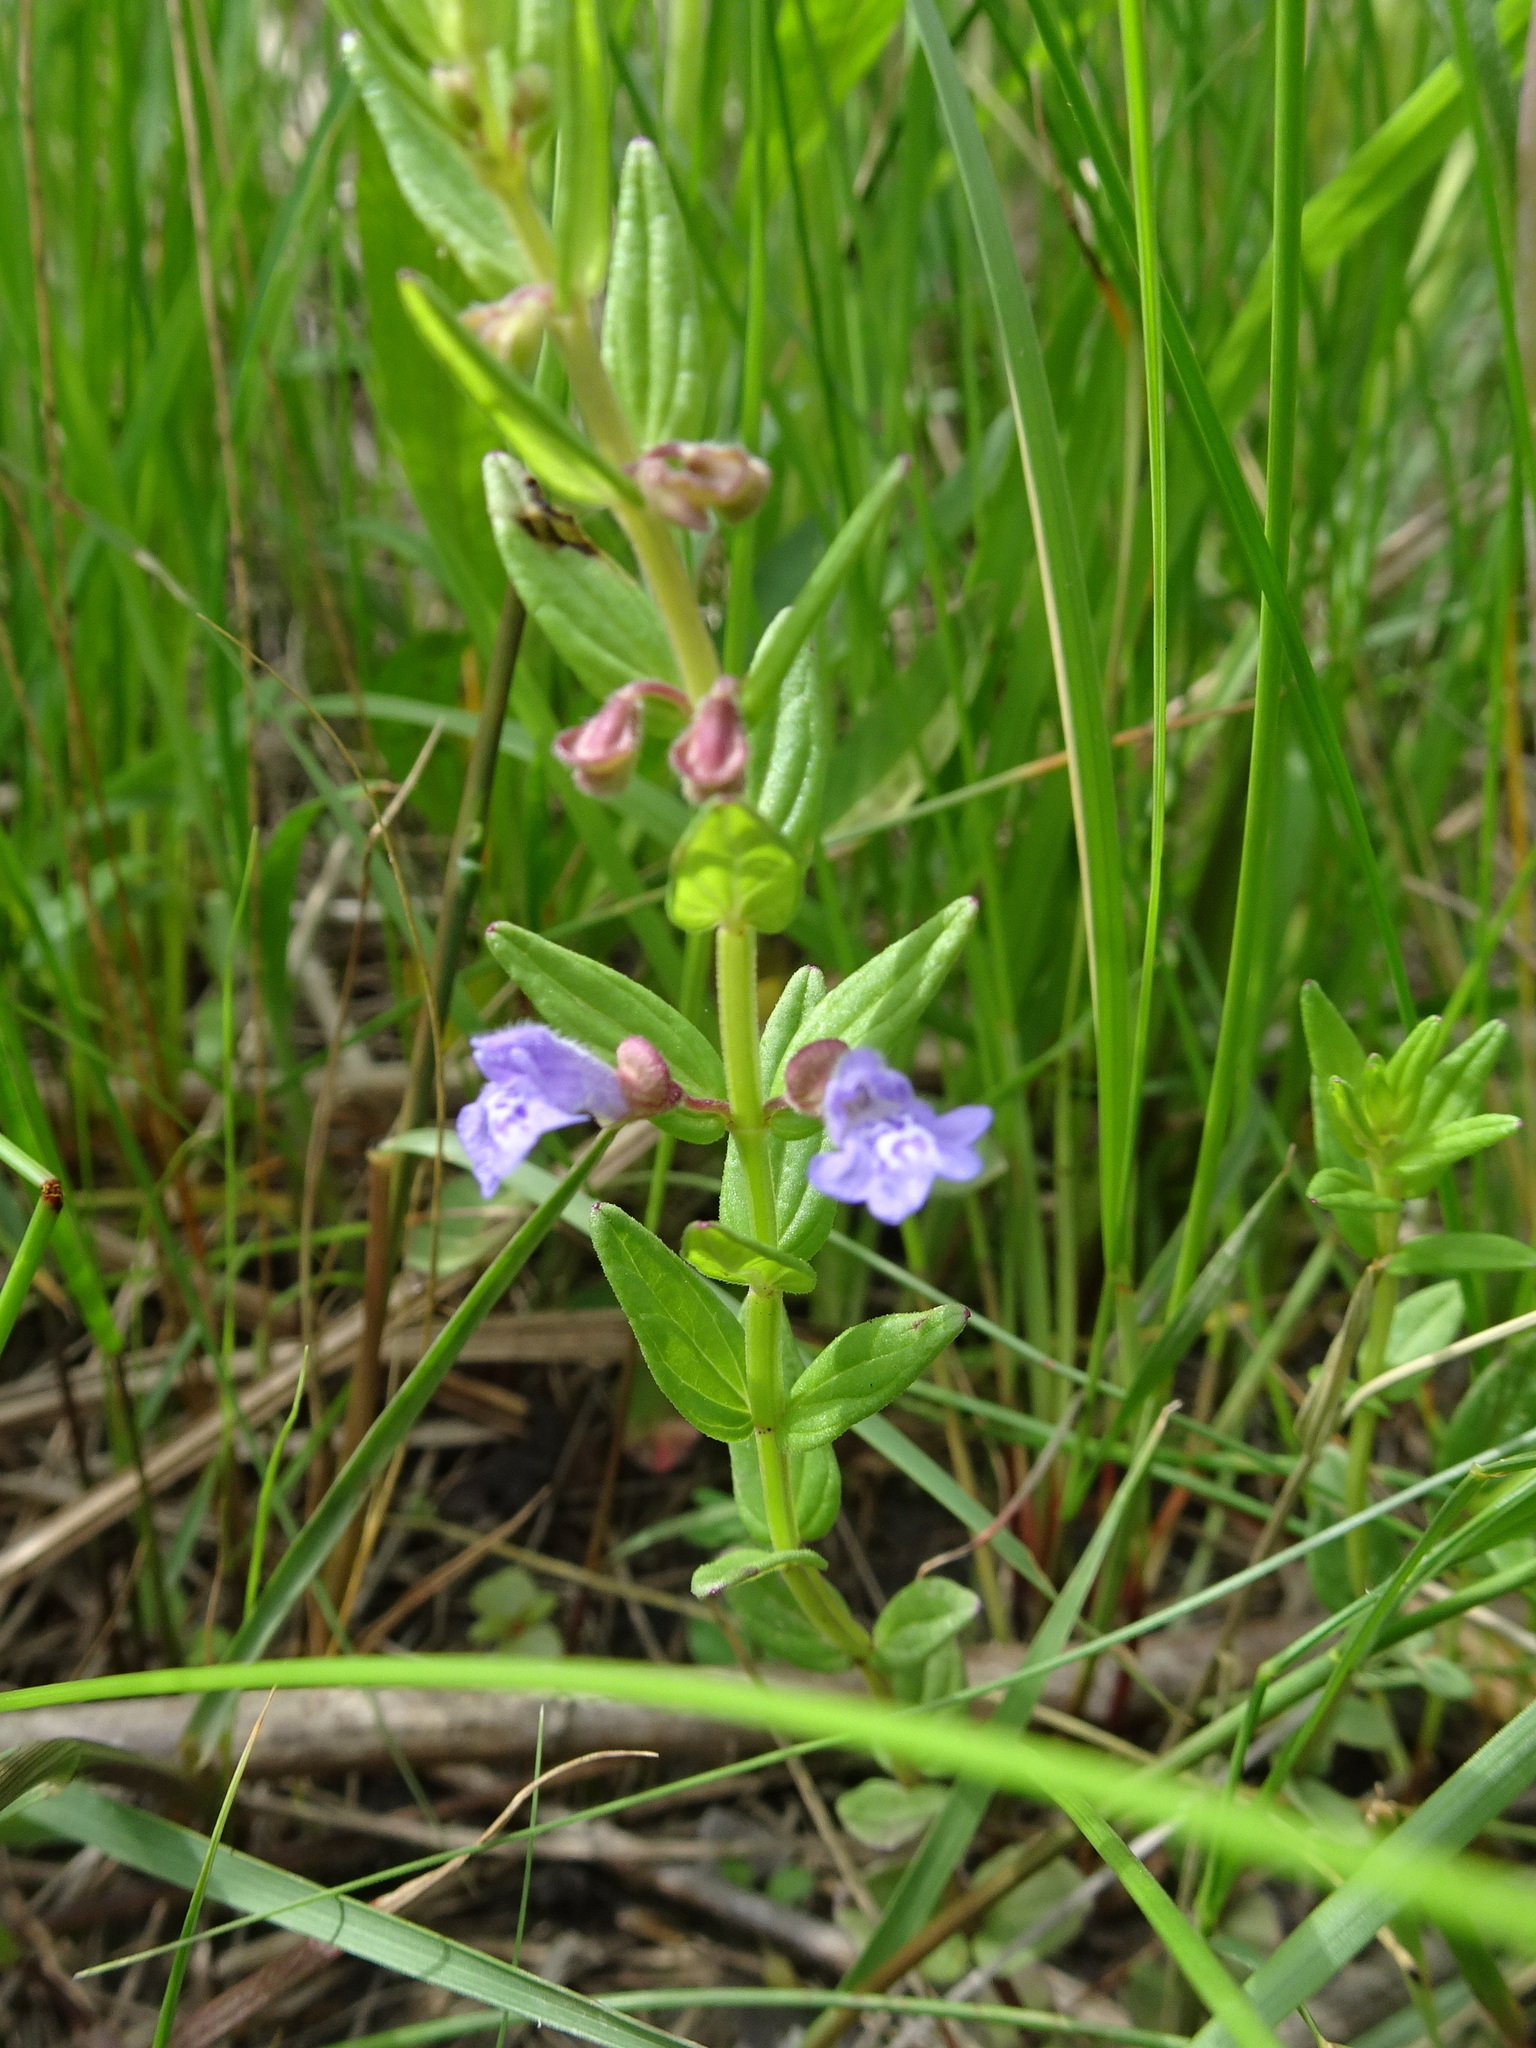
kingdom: Plantae
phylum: Tracheophyta
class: Magnoliopsida
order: Lamiales
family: Lamiaceae
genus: Scutellaria
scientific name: Scutellaria parvula
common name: Little scullcap
